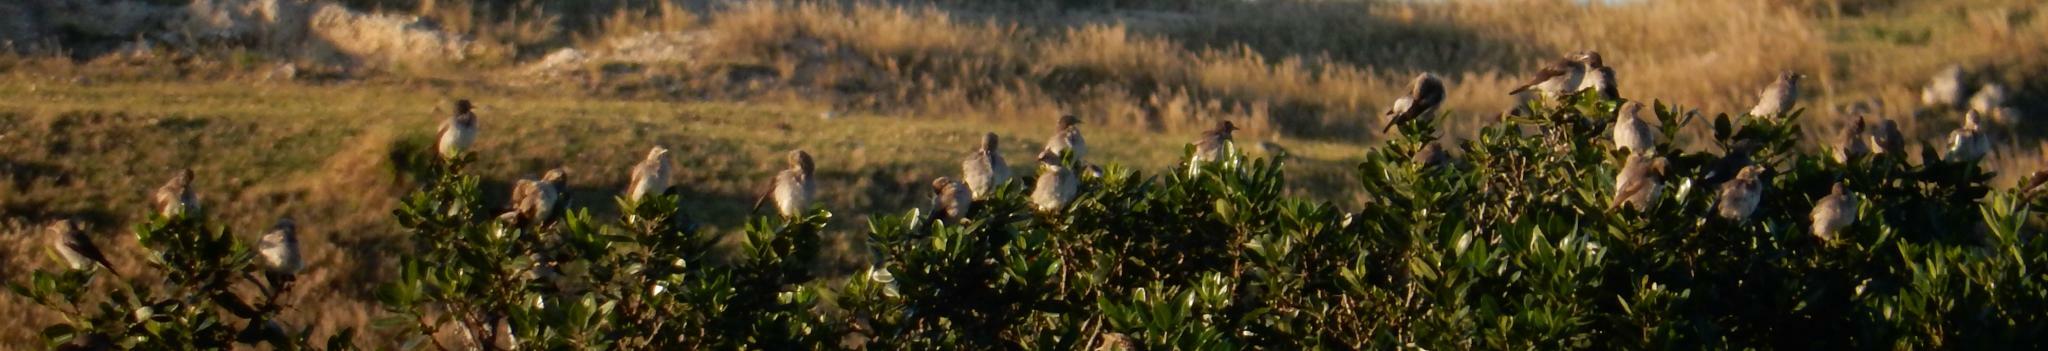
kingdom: Animalia
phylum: Chordata
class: Aves
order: Passeriformes
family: Sturnidae
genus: Creatophora
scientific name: Creatophora cinerea
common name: Wattled starling
